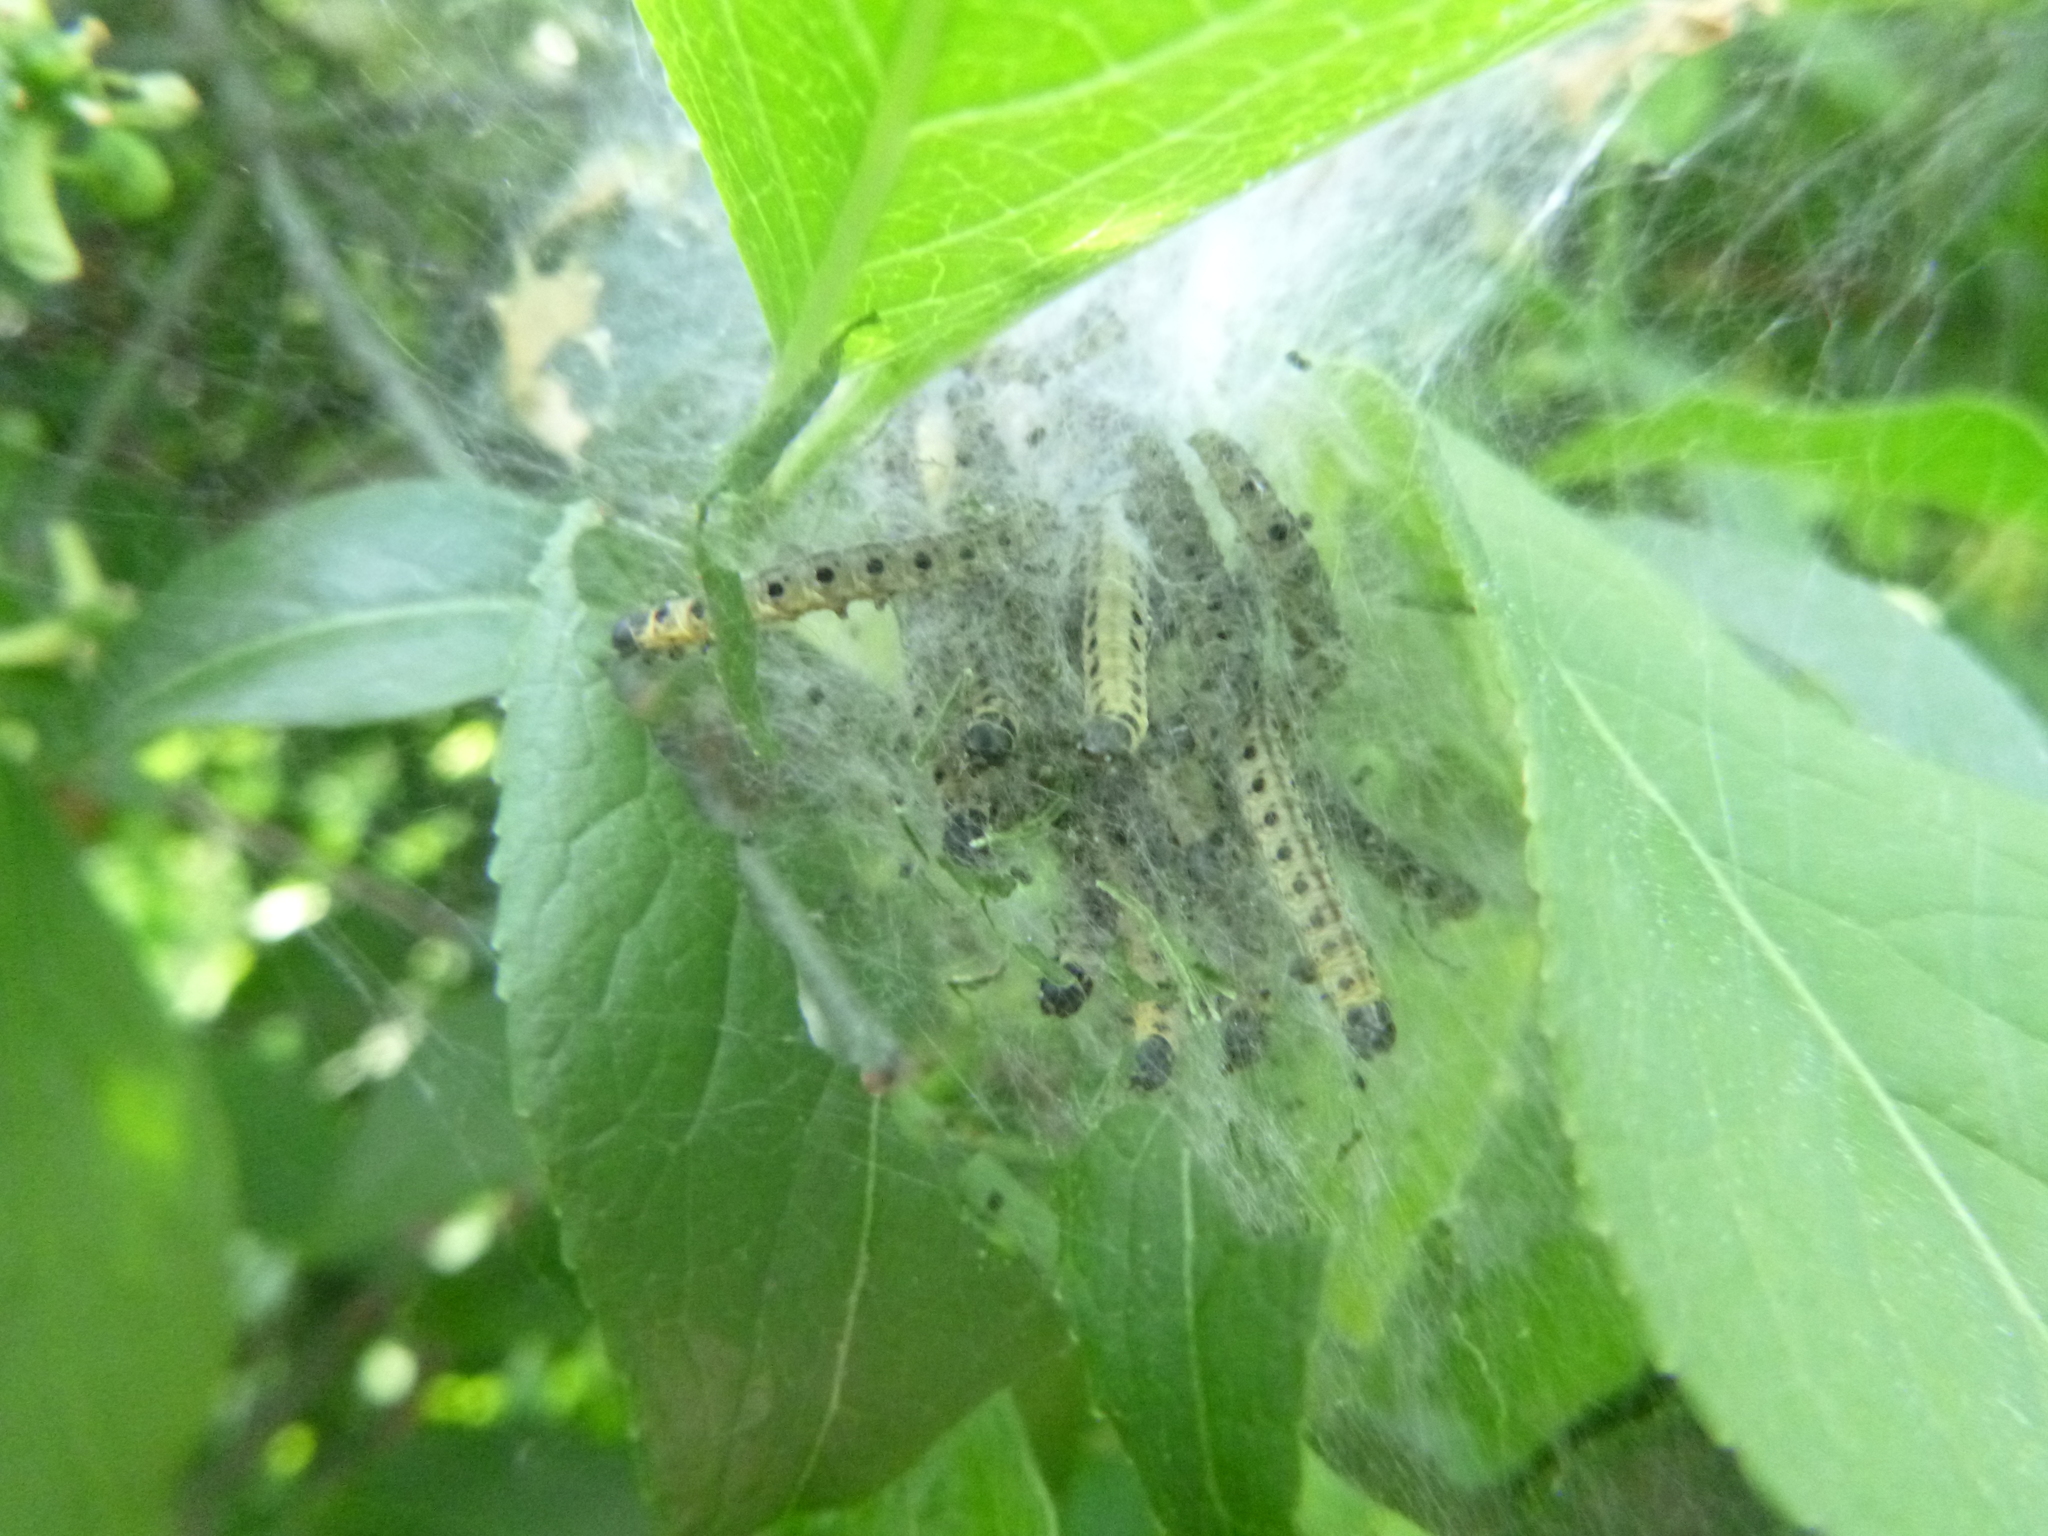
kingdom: Animalia
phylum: Arthropoda
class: Insecta
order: Lepidoptera
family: Yponomeutidae
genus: Yponomeuta
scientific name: Yponomeuta cagnagellus
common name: Spindle ermine
